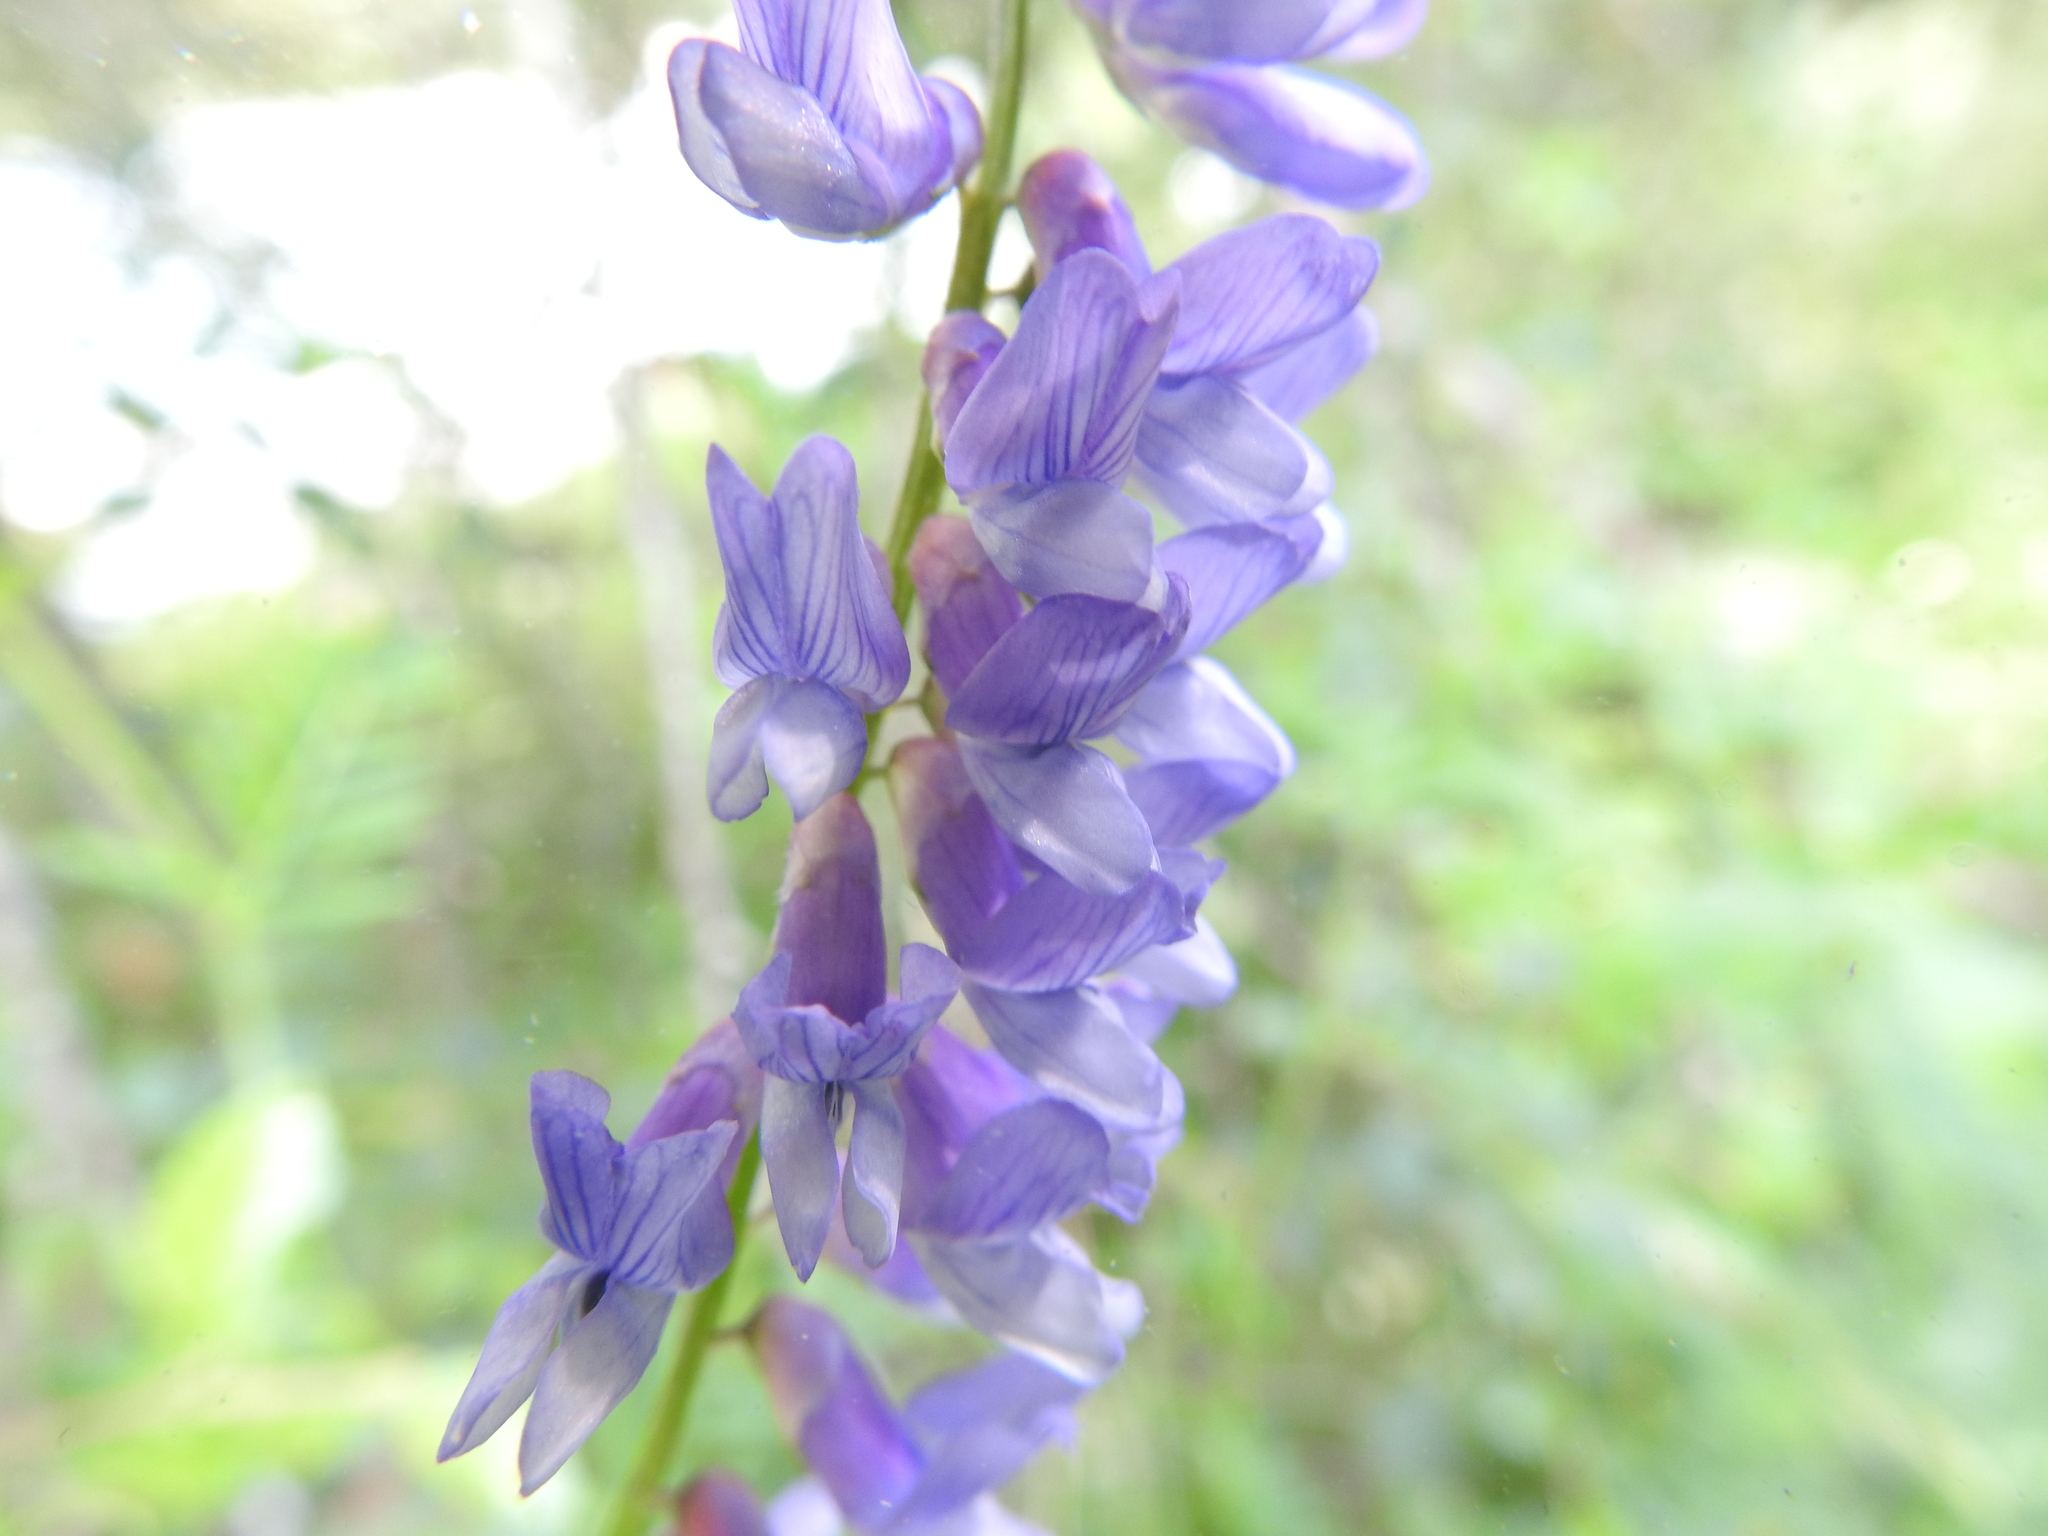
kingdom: Plantae
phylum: Tracheophyta
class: Magnoliopsida
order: Fabales
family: Fabaceae
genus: Vicia
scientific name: Vicia cracca
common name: Bird vetch
